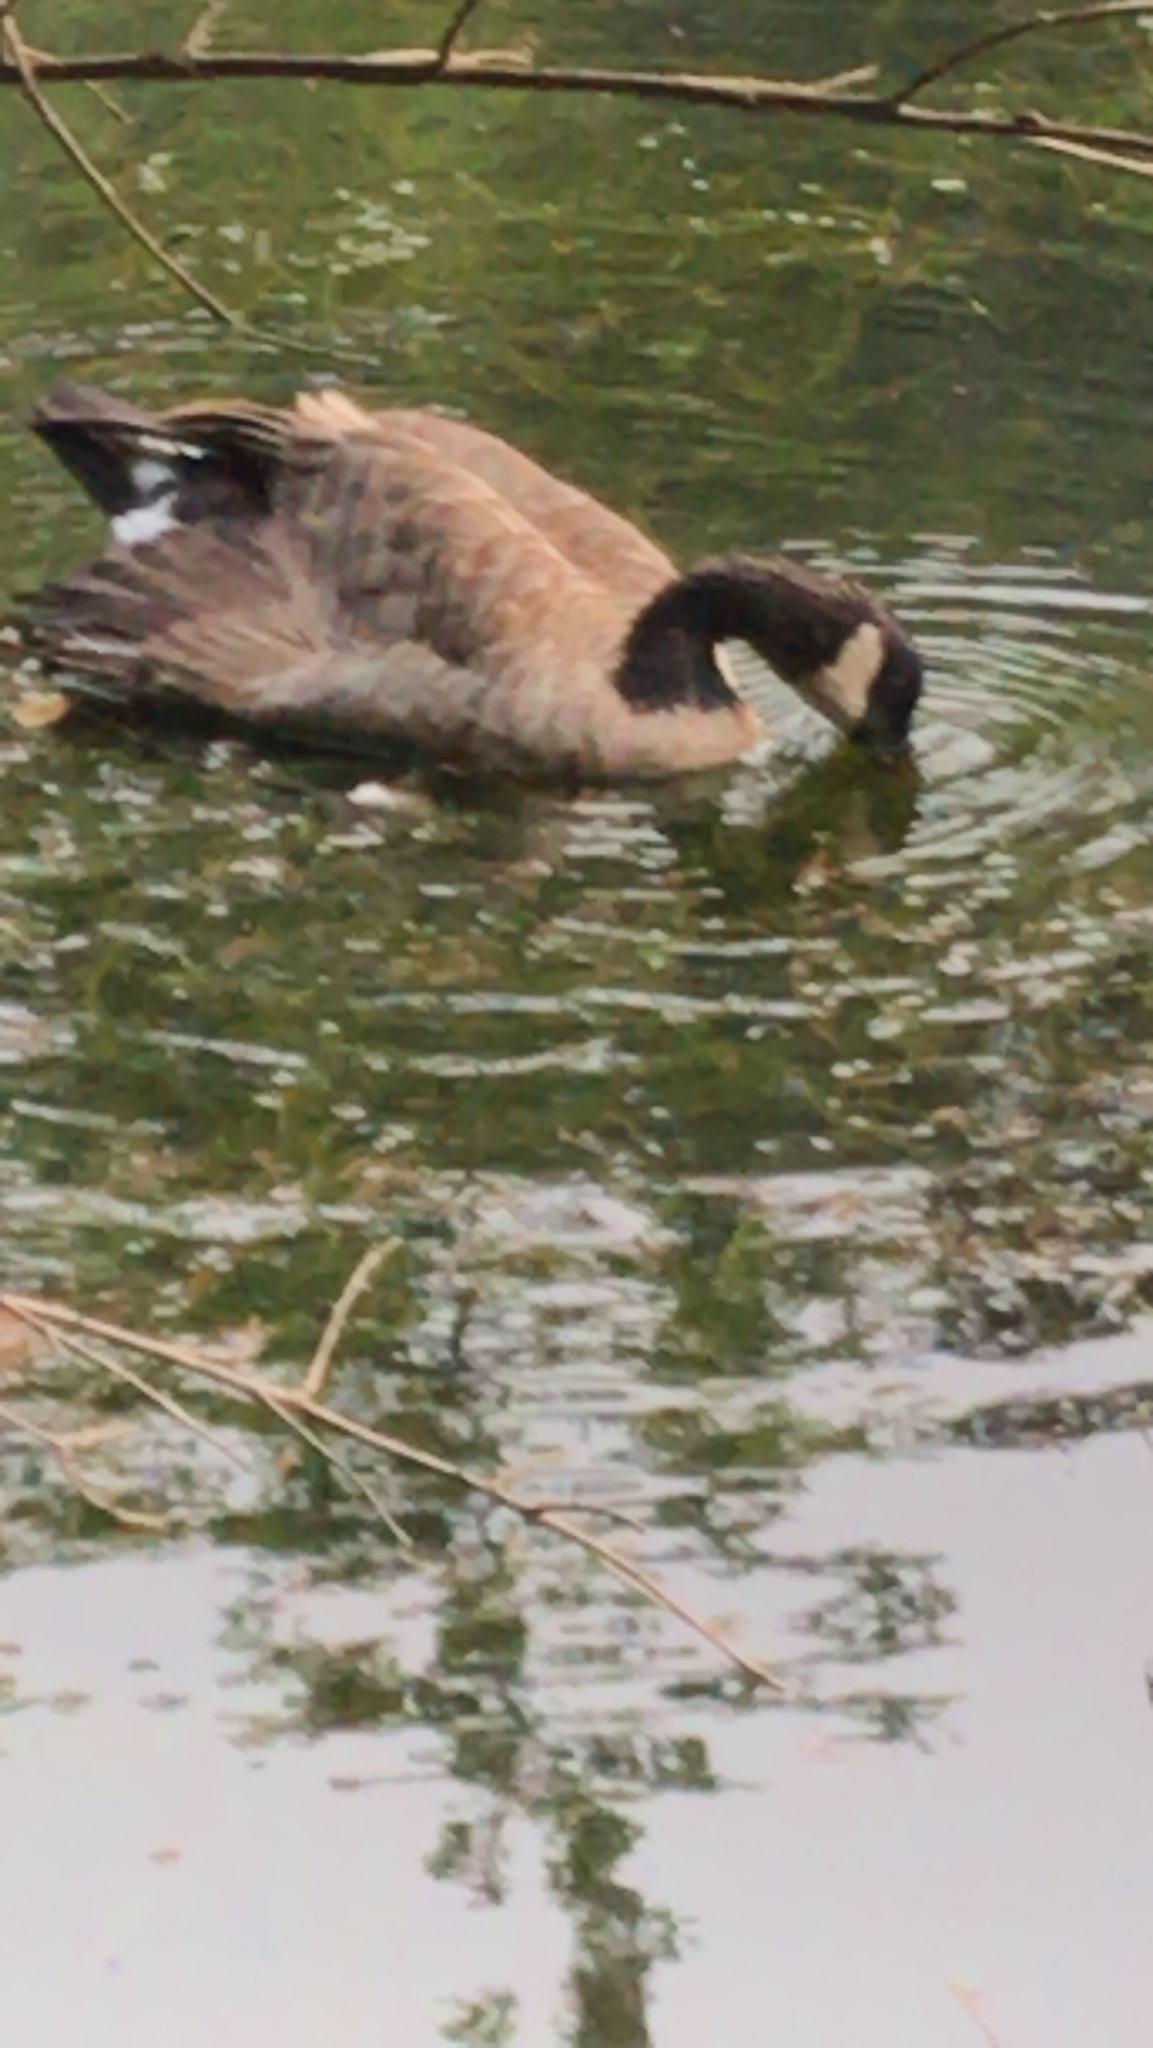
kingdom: Animalia
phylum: Chordata
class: Aves
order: Anseriformes
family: Anatidae
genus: Branta
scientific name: Branta canadensis
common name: Canada goose
